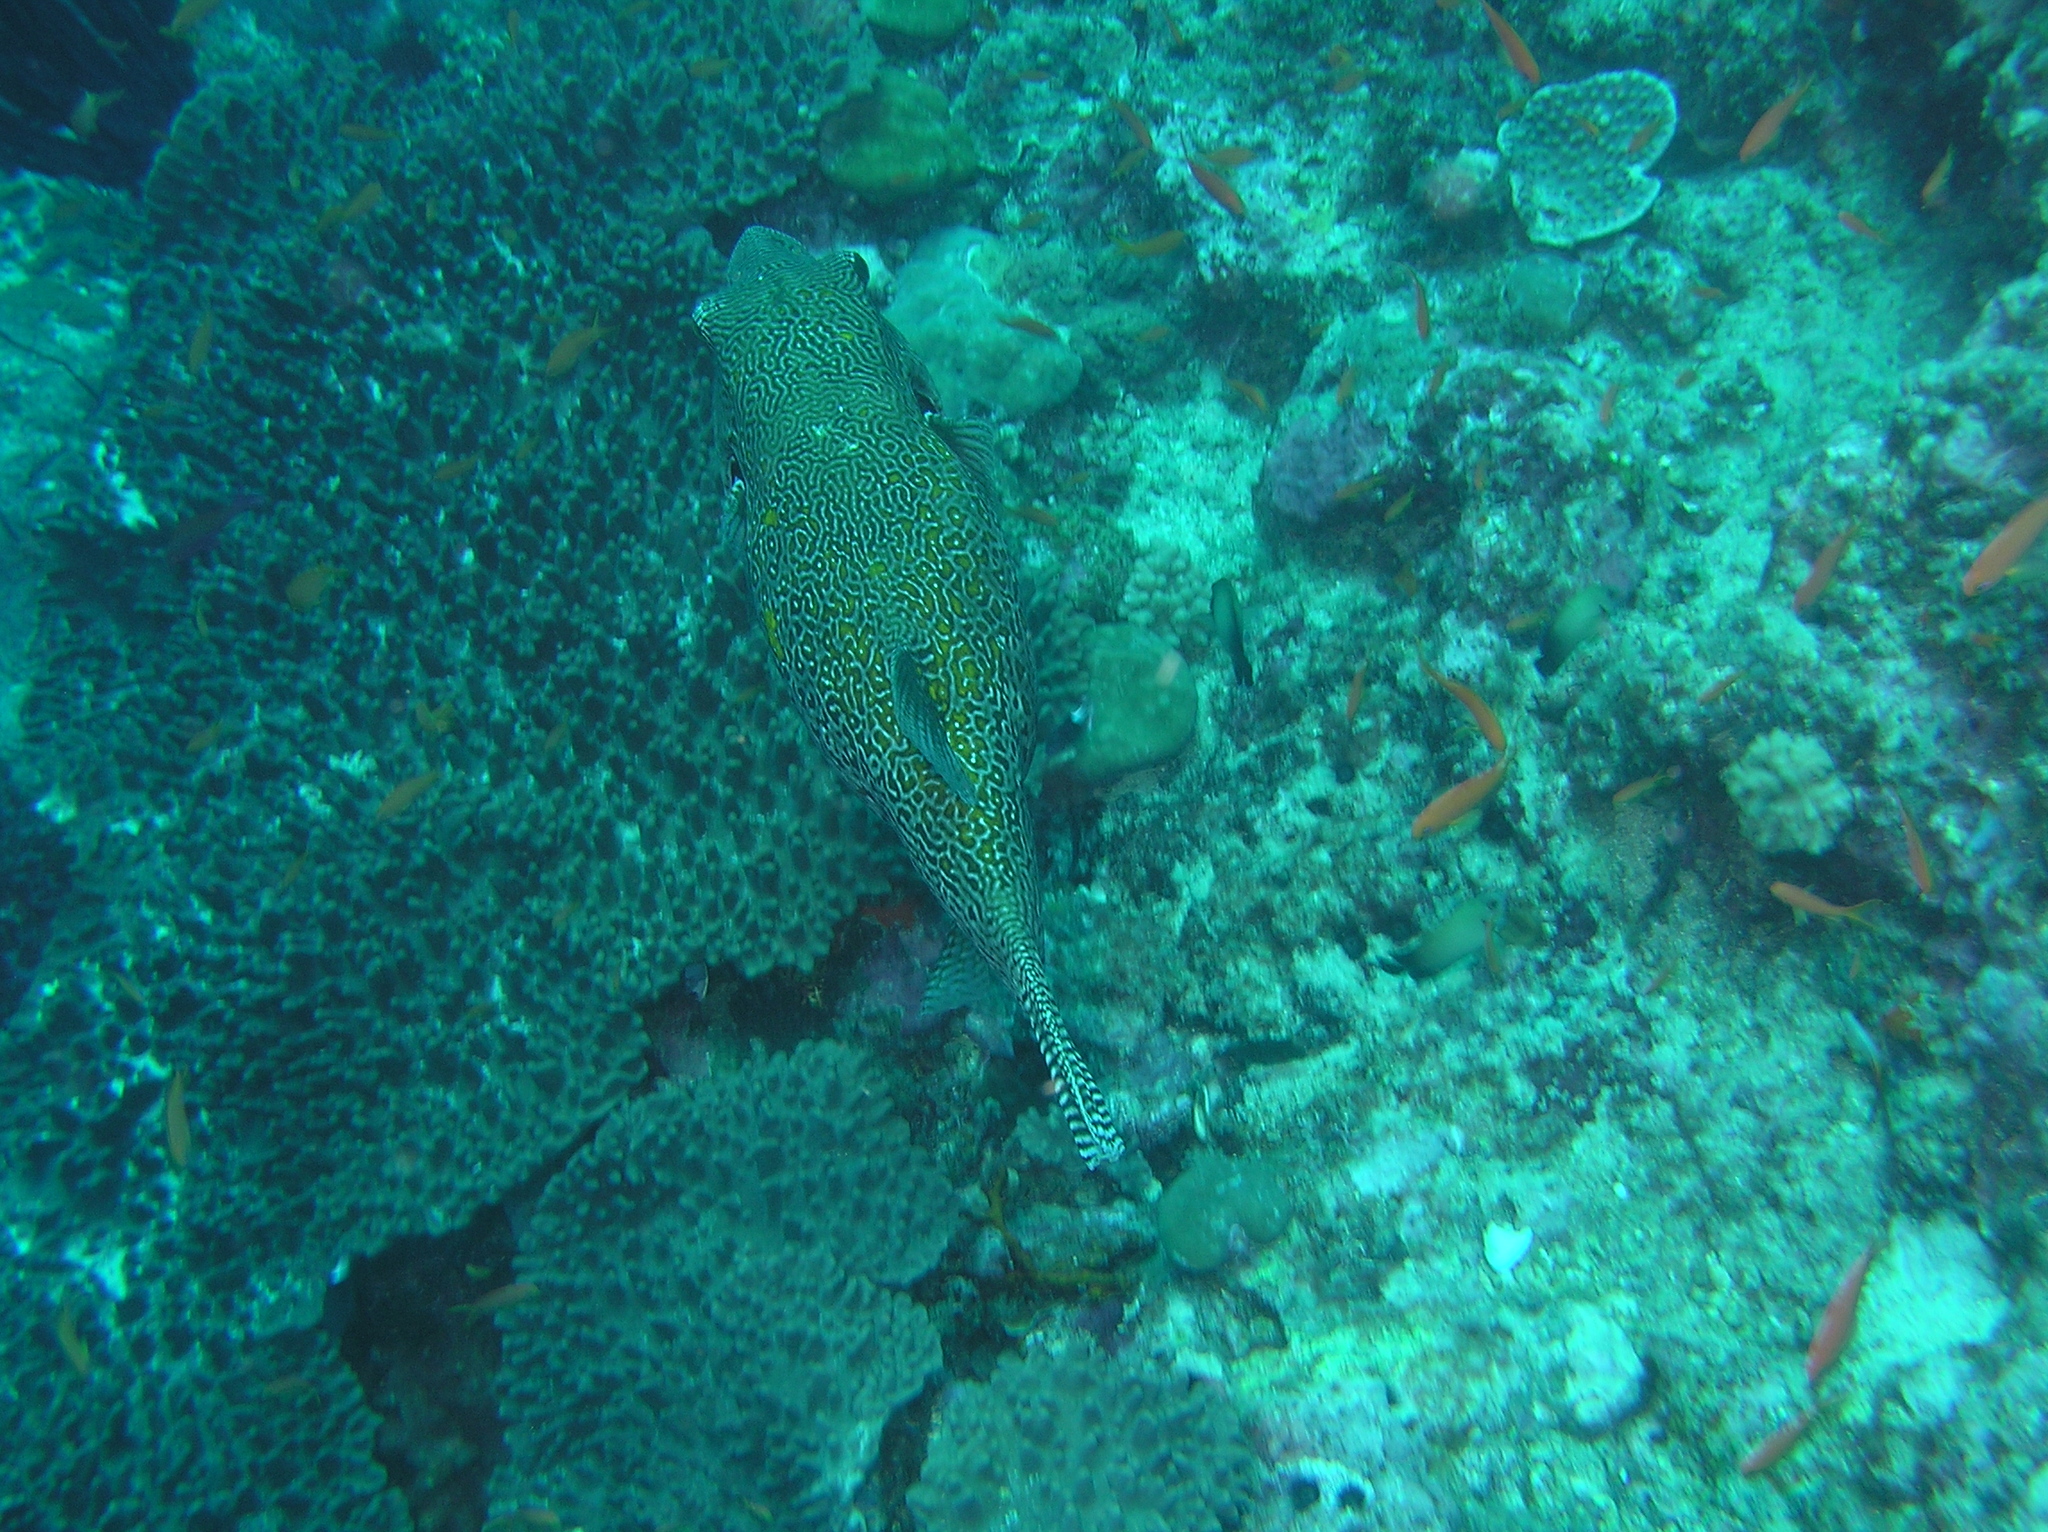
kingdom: Animalia
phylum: Chordata
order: Tetraodontiformes
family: Tetraodontidae
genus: Arothron
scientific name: Arothron mappa
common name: Map blaasop
